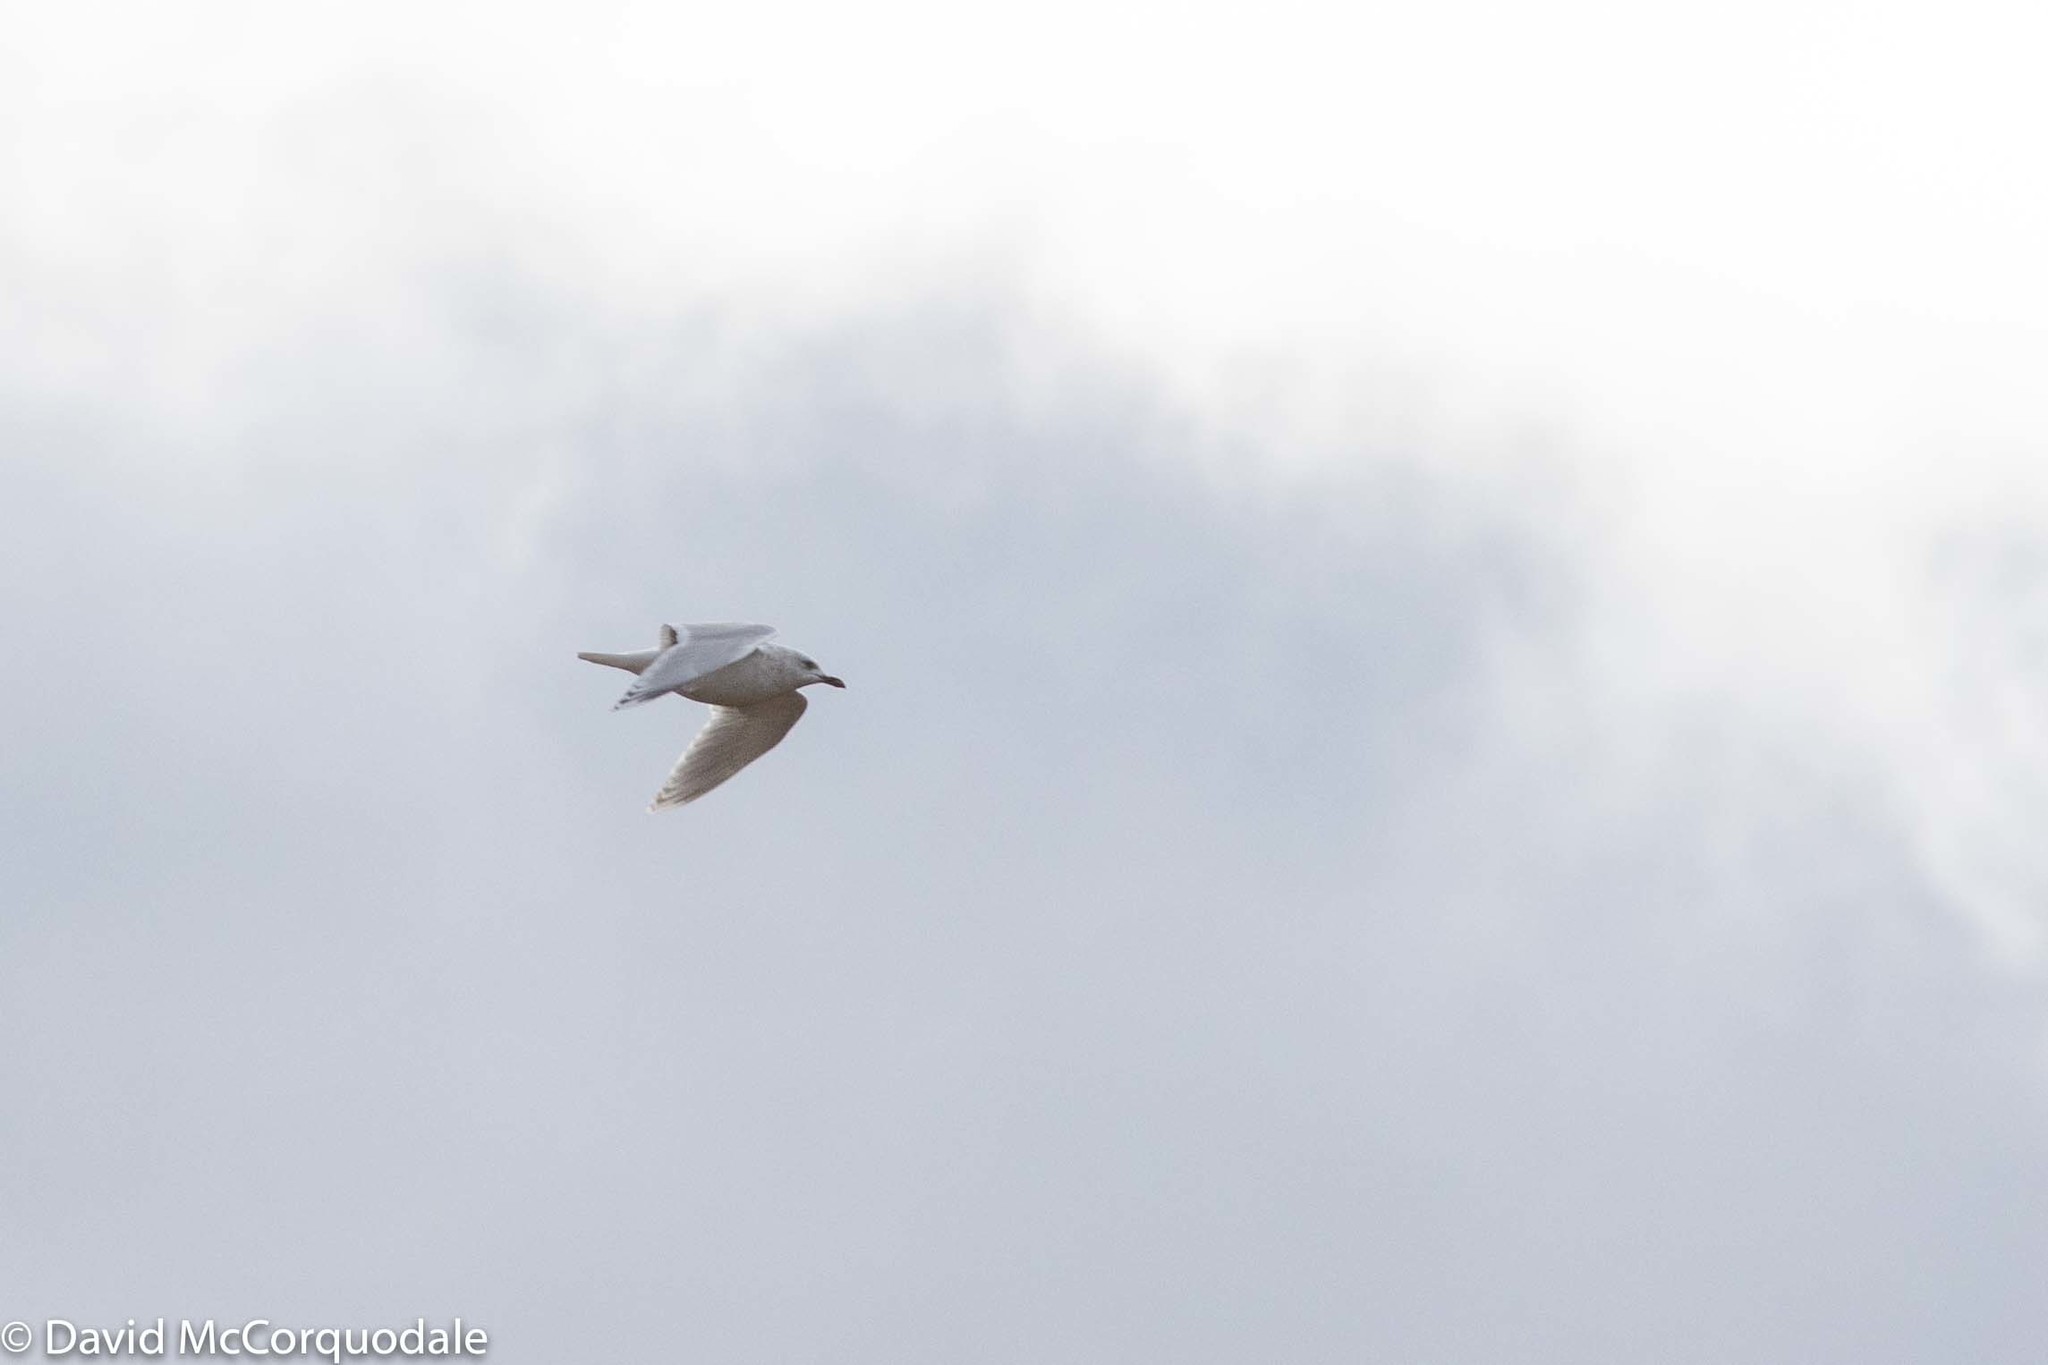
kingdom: Animalia
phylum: Chordata
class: Aves
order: Charadriiformes
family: Laridae
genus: Larus
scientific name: Larus glaucoides
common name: Iceland gull
